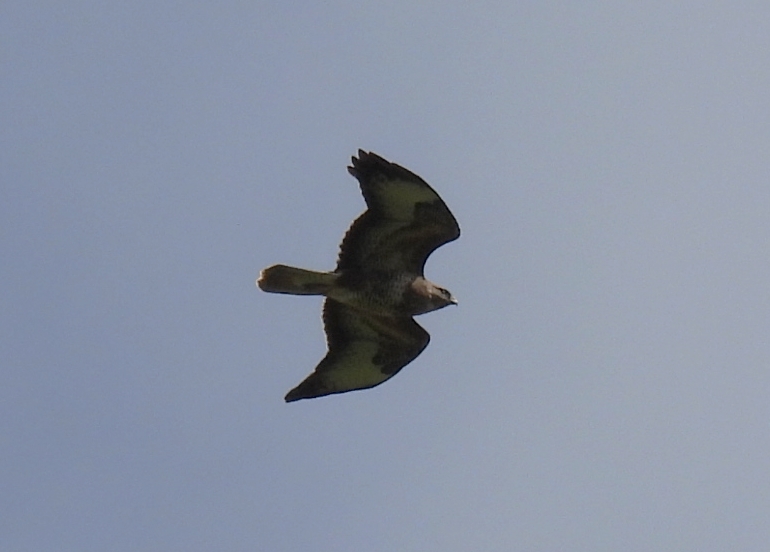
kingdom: Animalia
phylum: Chordata
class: Aves
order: Accipitriformes
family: Accipitridae
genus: Buteo
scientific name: Buteo buteo
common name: Common buzzard
